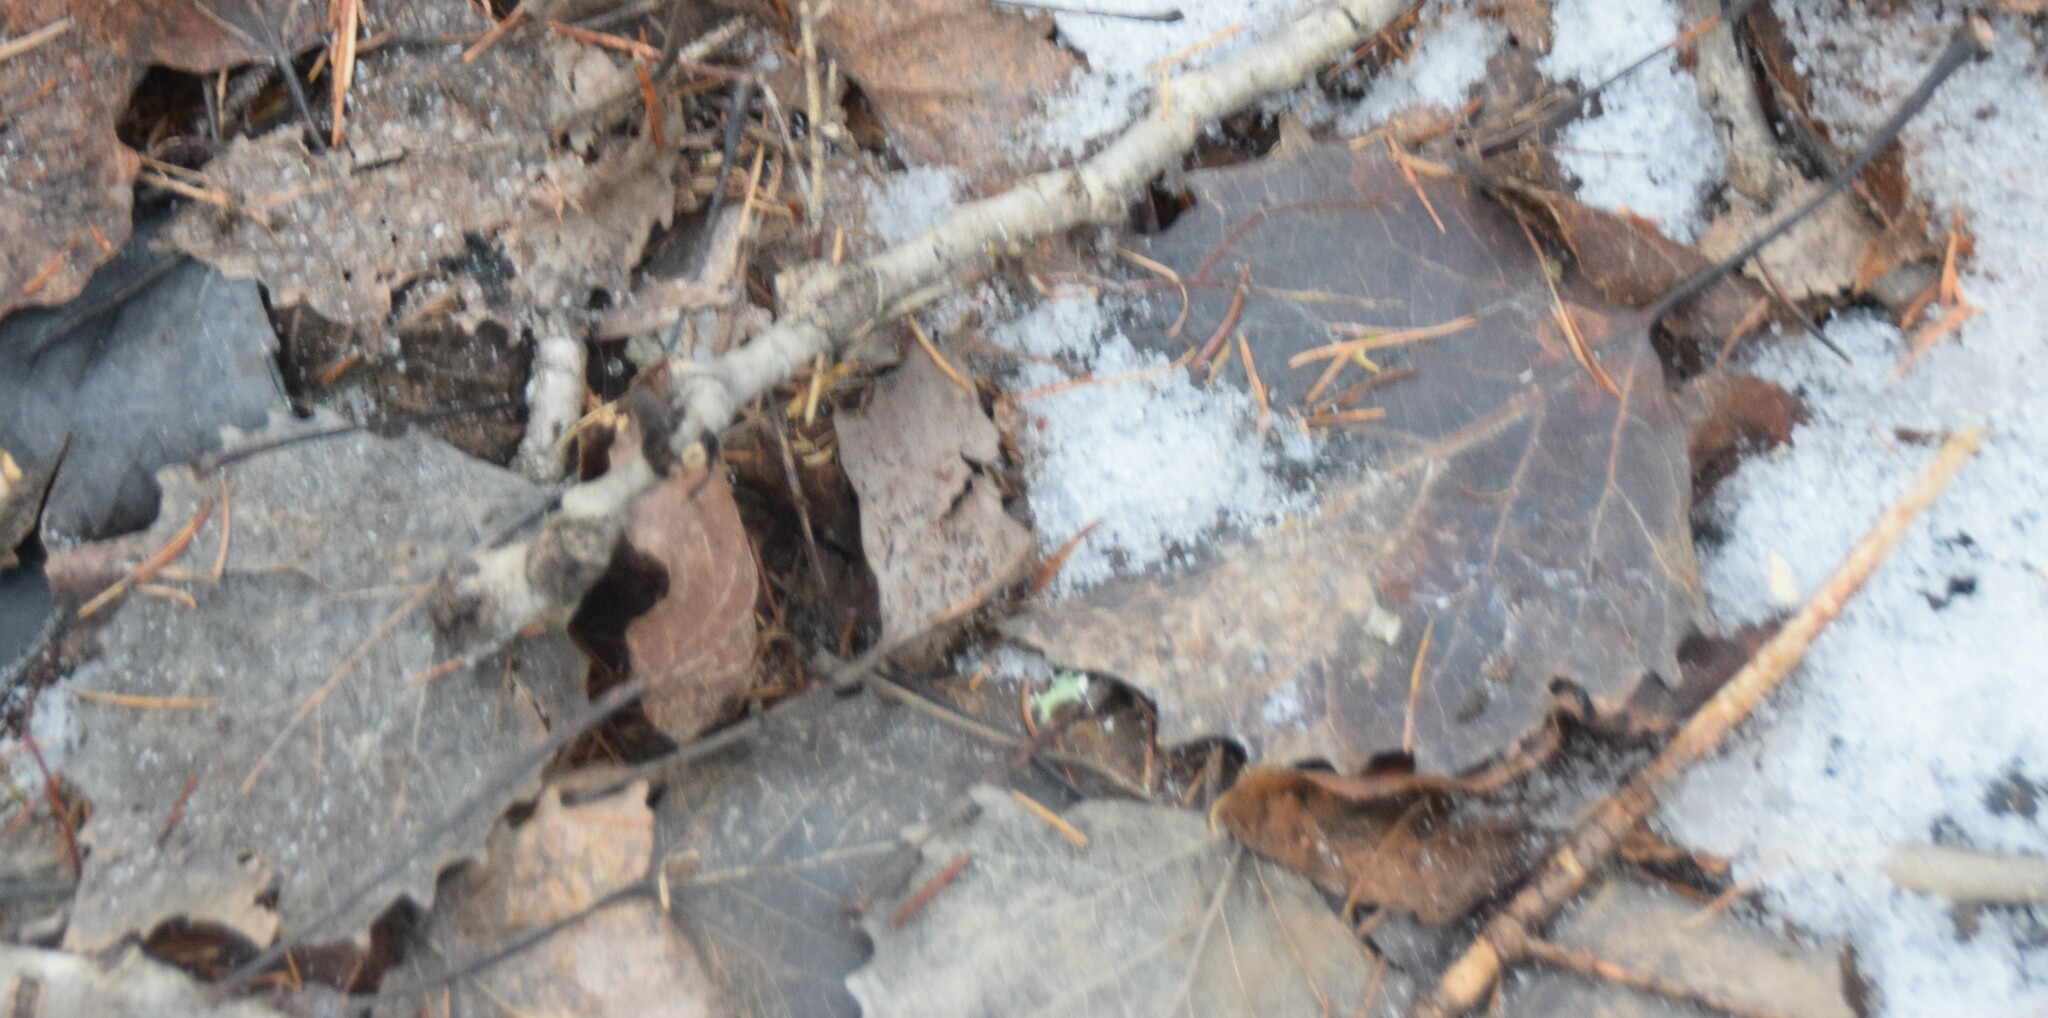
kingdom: Plantae
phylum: Tracheophyta
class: Magnoliopsida
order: Malpighiales
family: Salicaceae
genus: Populus
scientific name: Populus grandidentata
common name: Bigtooth aspen
